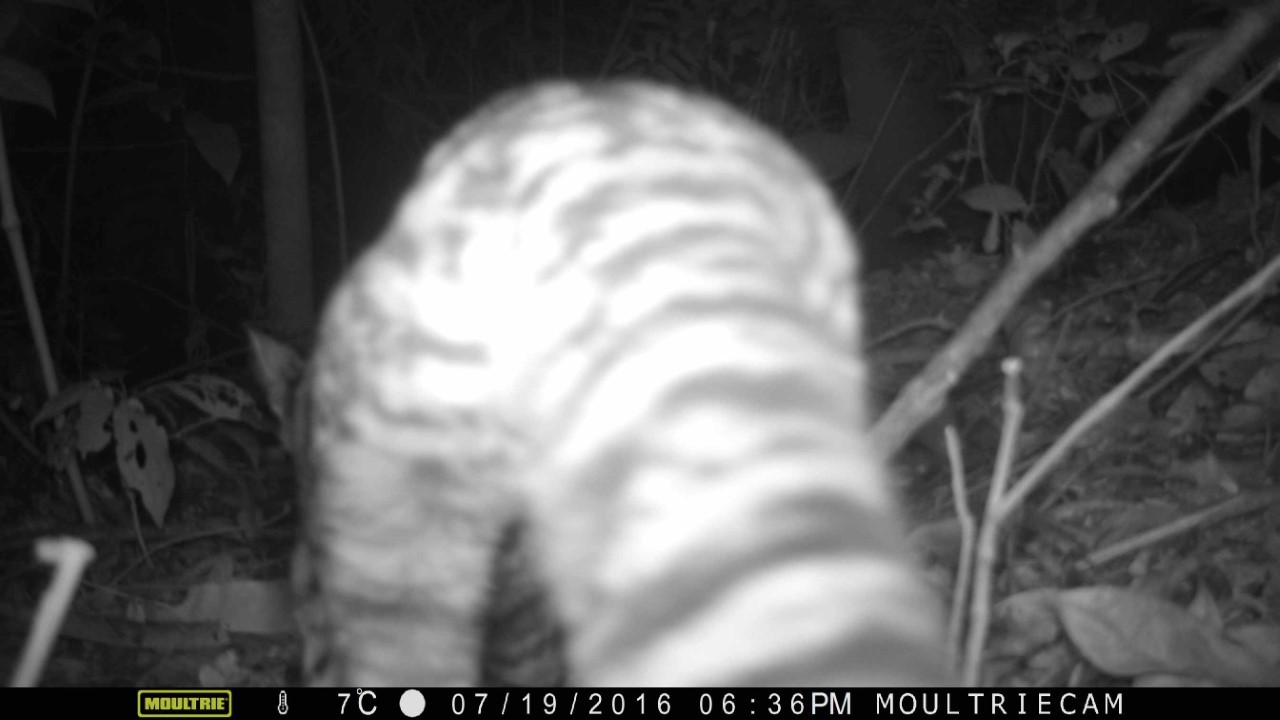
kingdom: Animalia
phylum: Chordata
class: Mammalia
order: Carnivora
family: Felidae
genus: Leopardus
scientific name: Leopardus wiedii
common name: Margay
